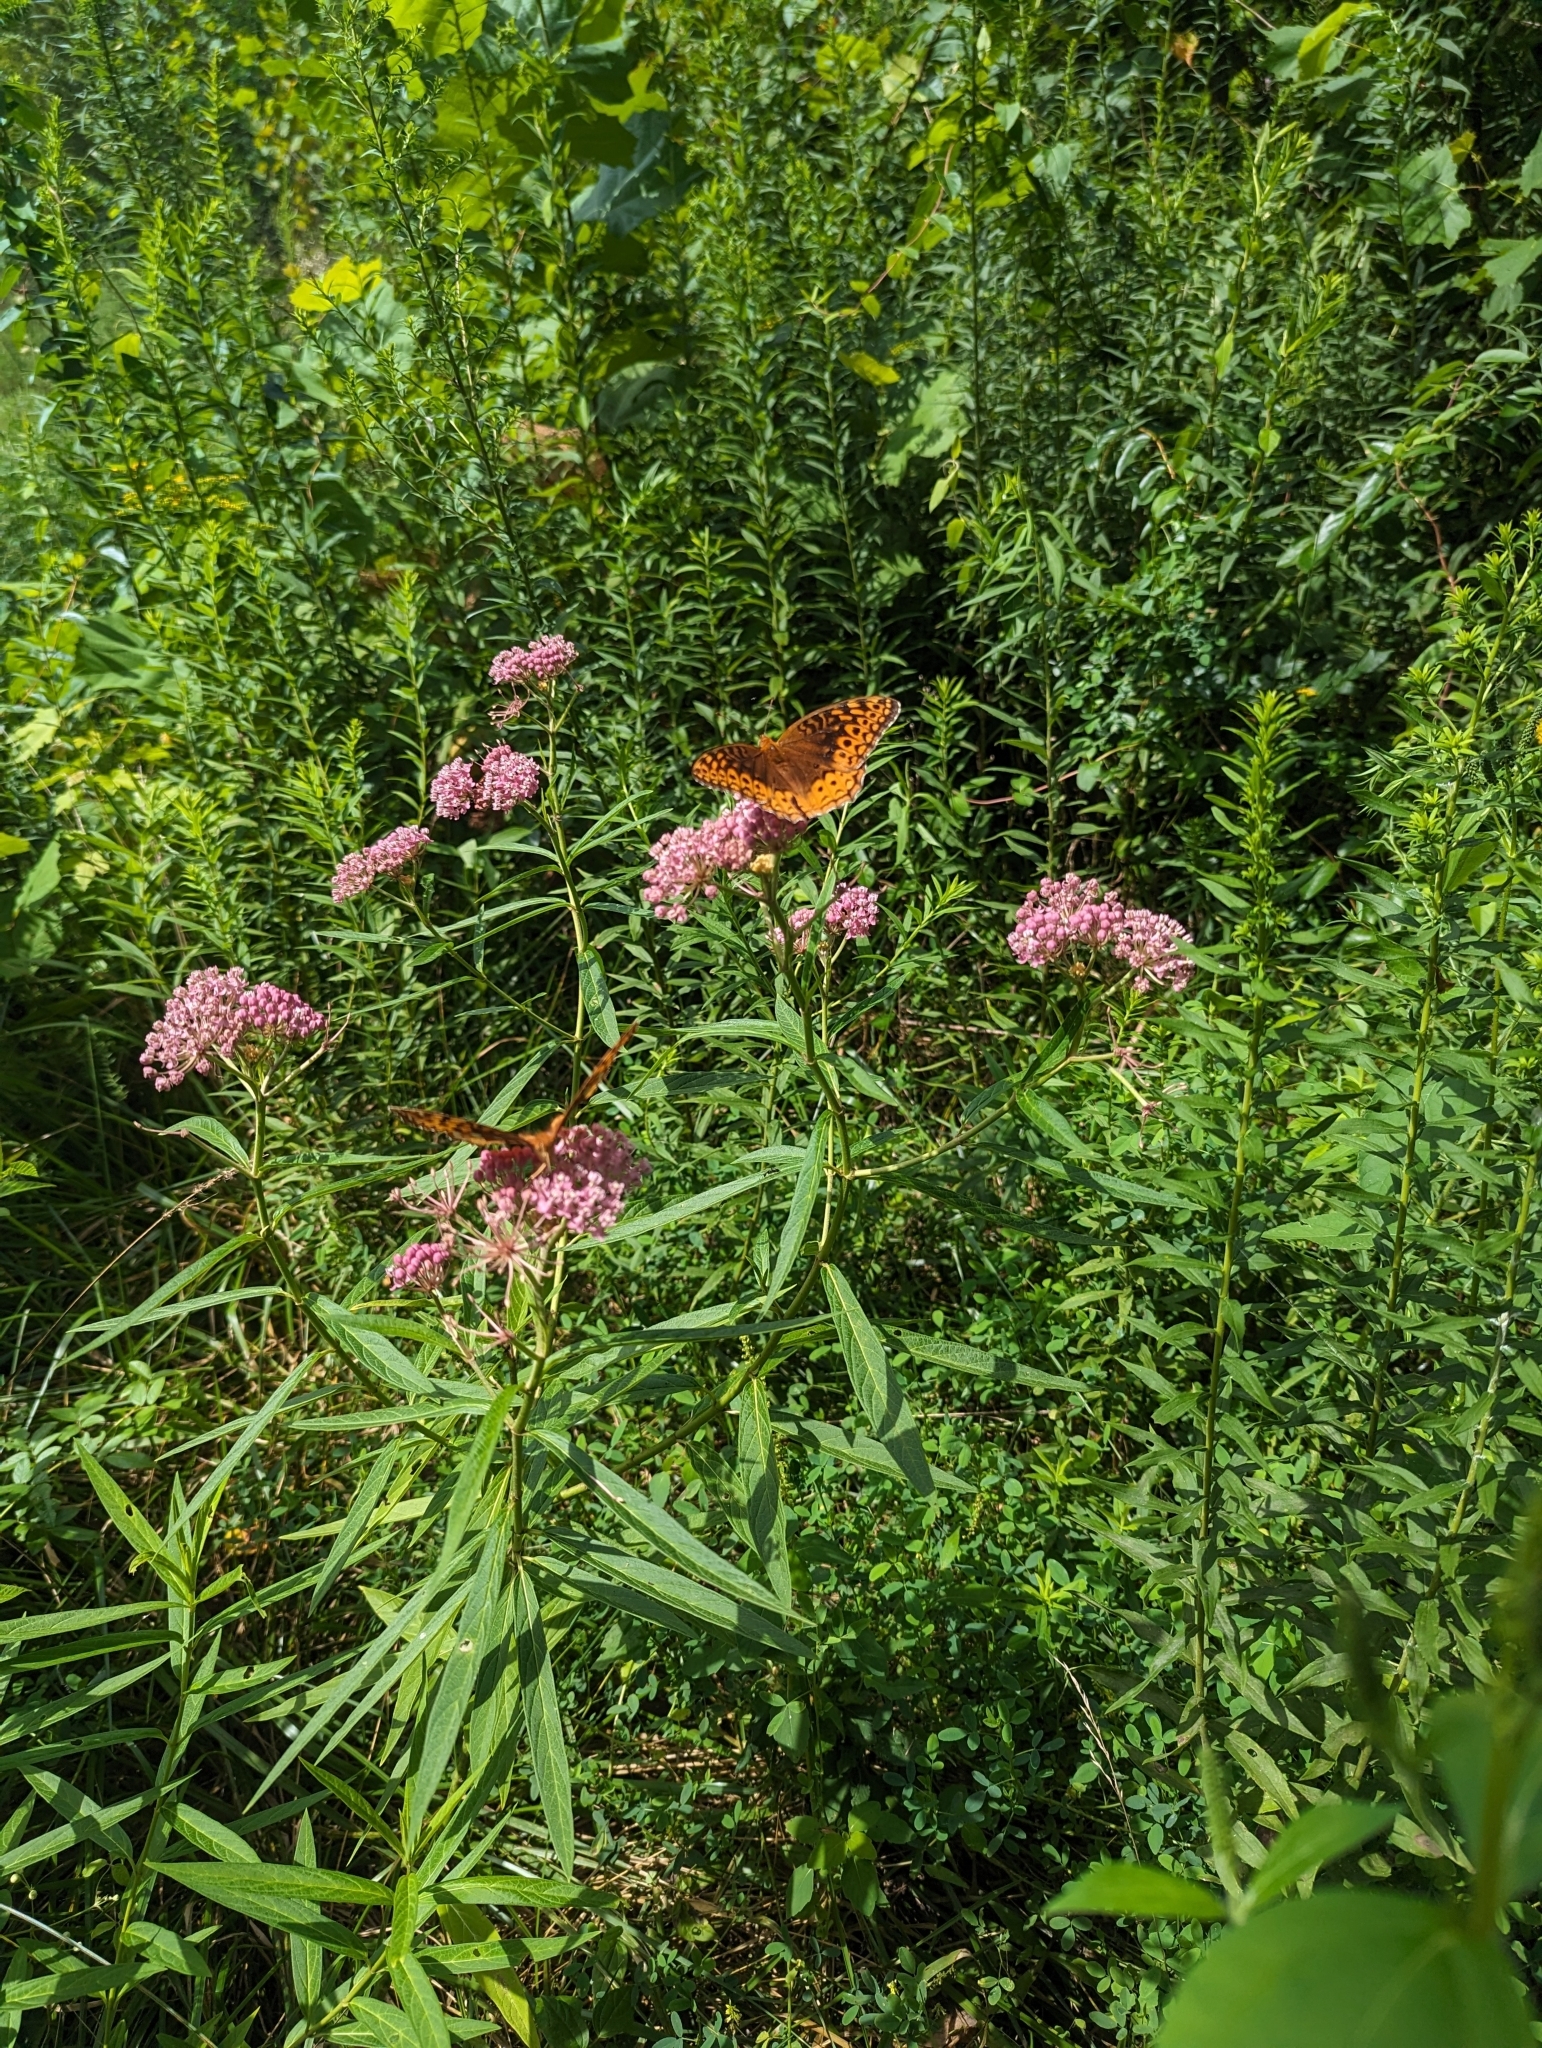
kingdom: Animalia
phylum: Arthropoda
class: Insecta
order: Lepidoptera
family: Nymphalidae
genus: Speyeria
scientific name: Speyeria cybele
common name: Great spangled fritillary
